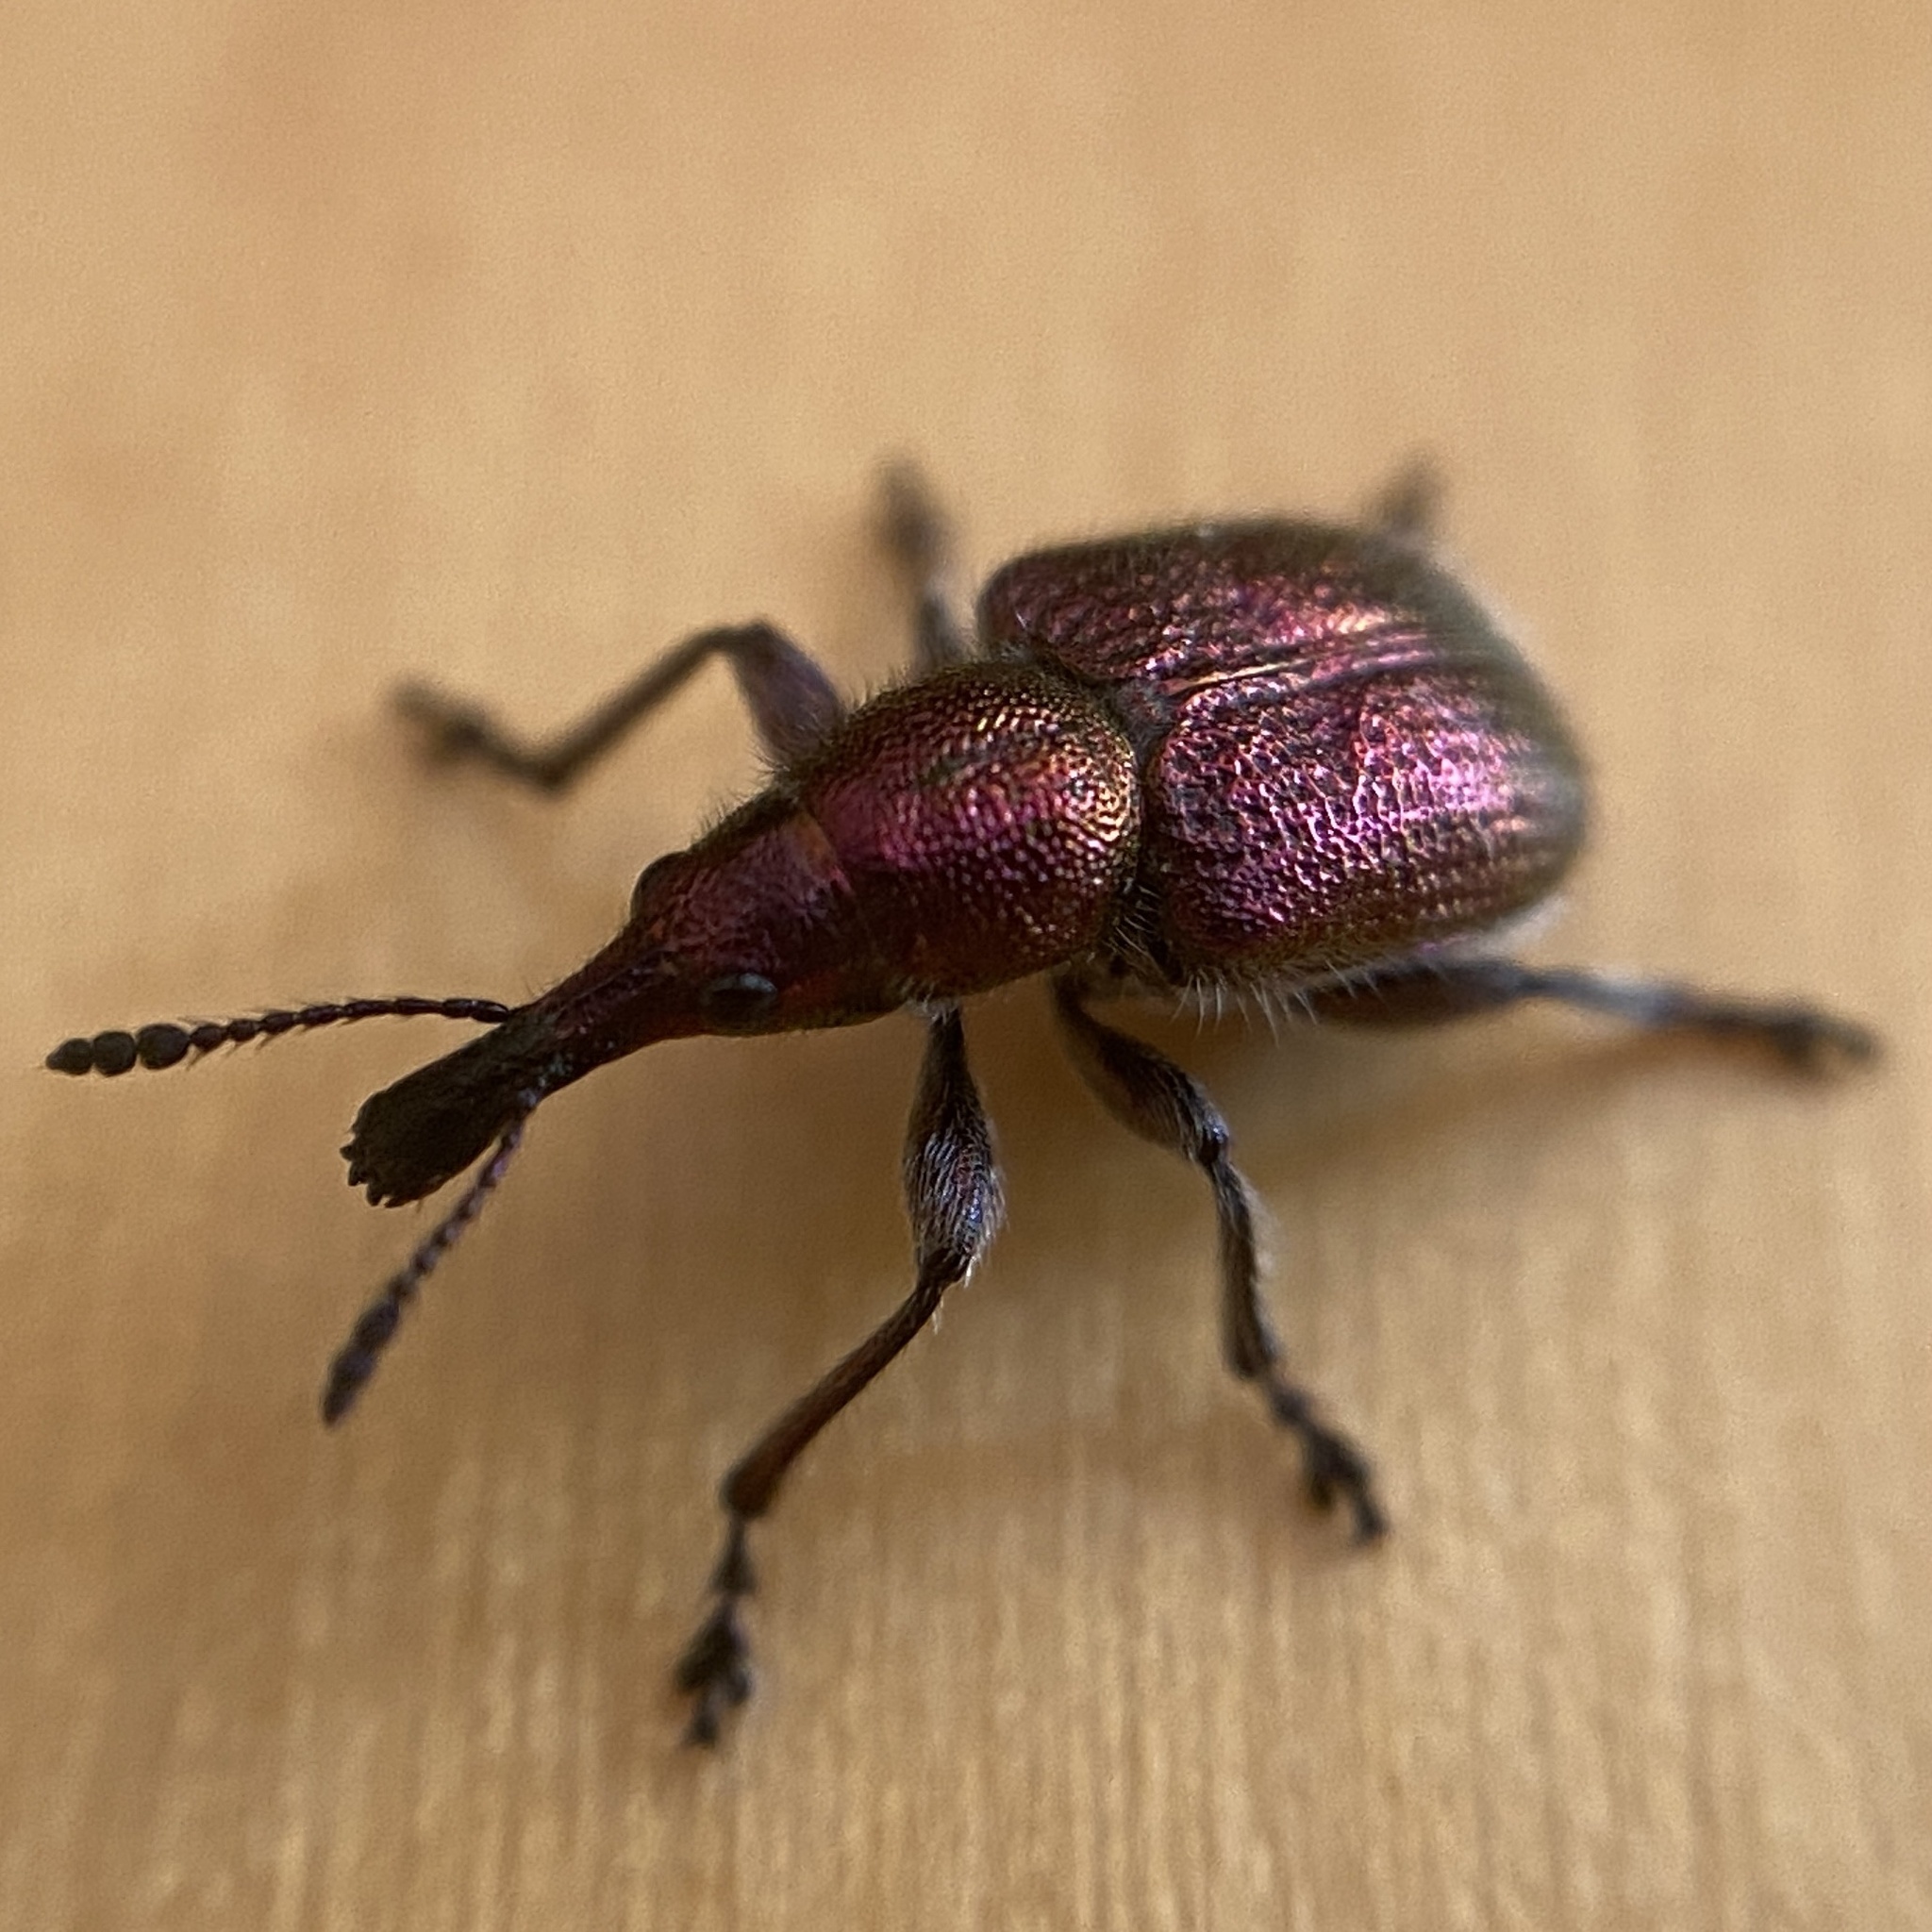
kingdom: Animalia
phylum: Arthropoda
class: Insecta
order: Coleoptera
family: Attelabidae
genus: Rhynchites
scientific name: Rhynchites auratus
